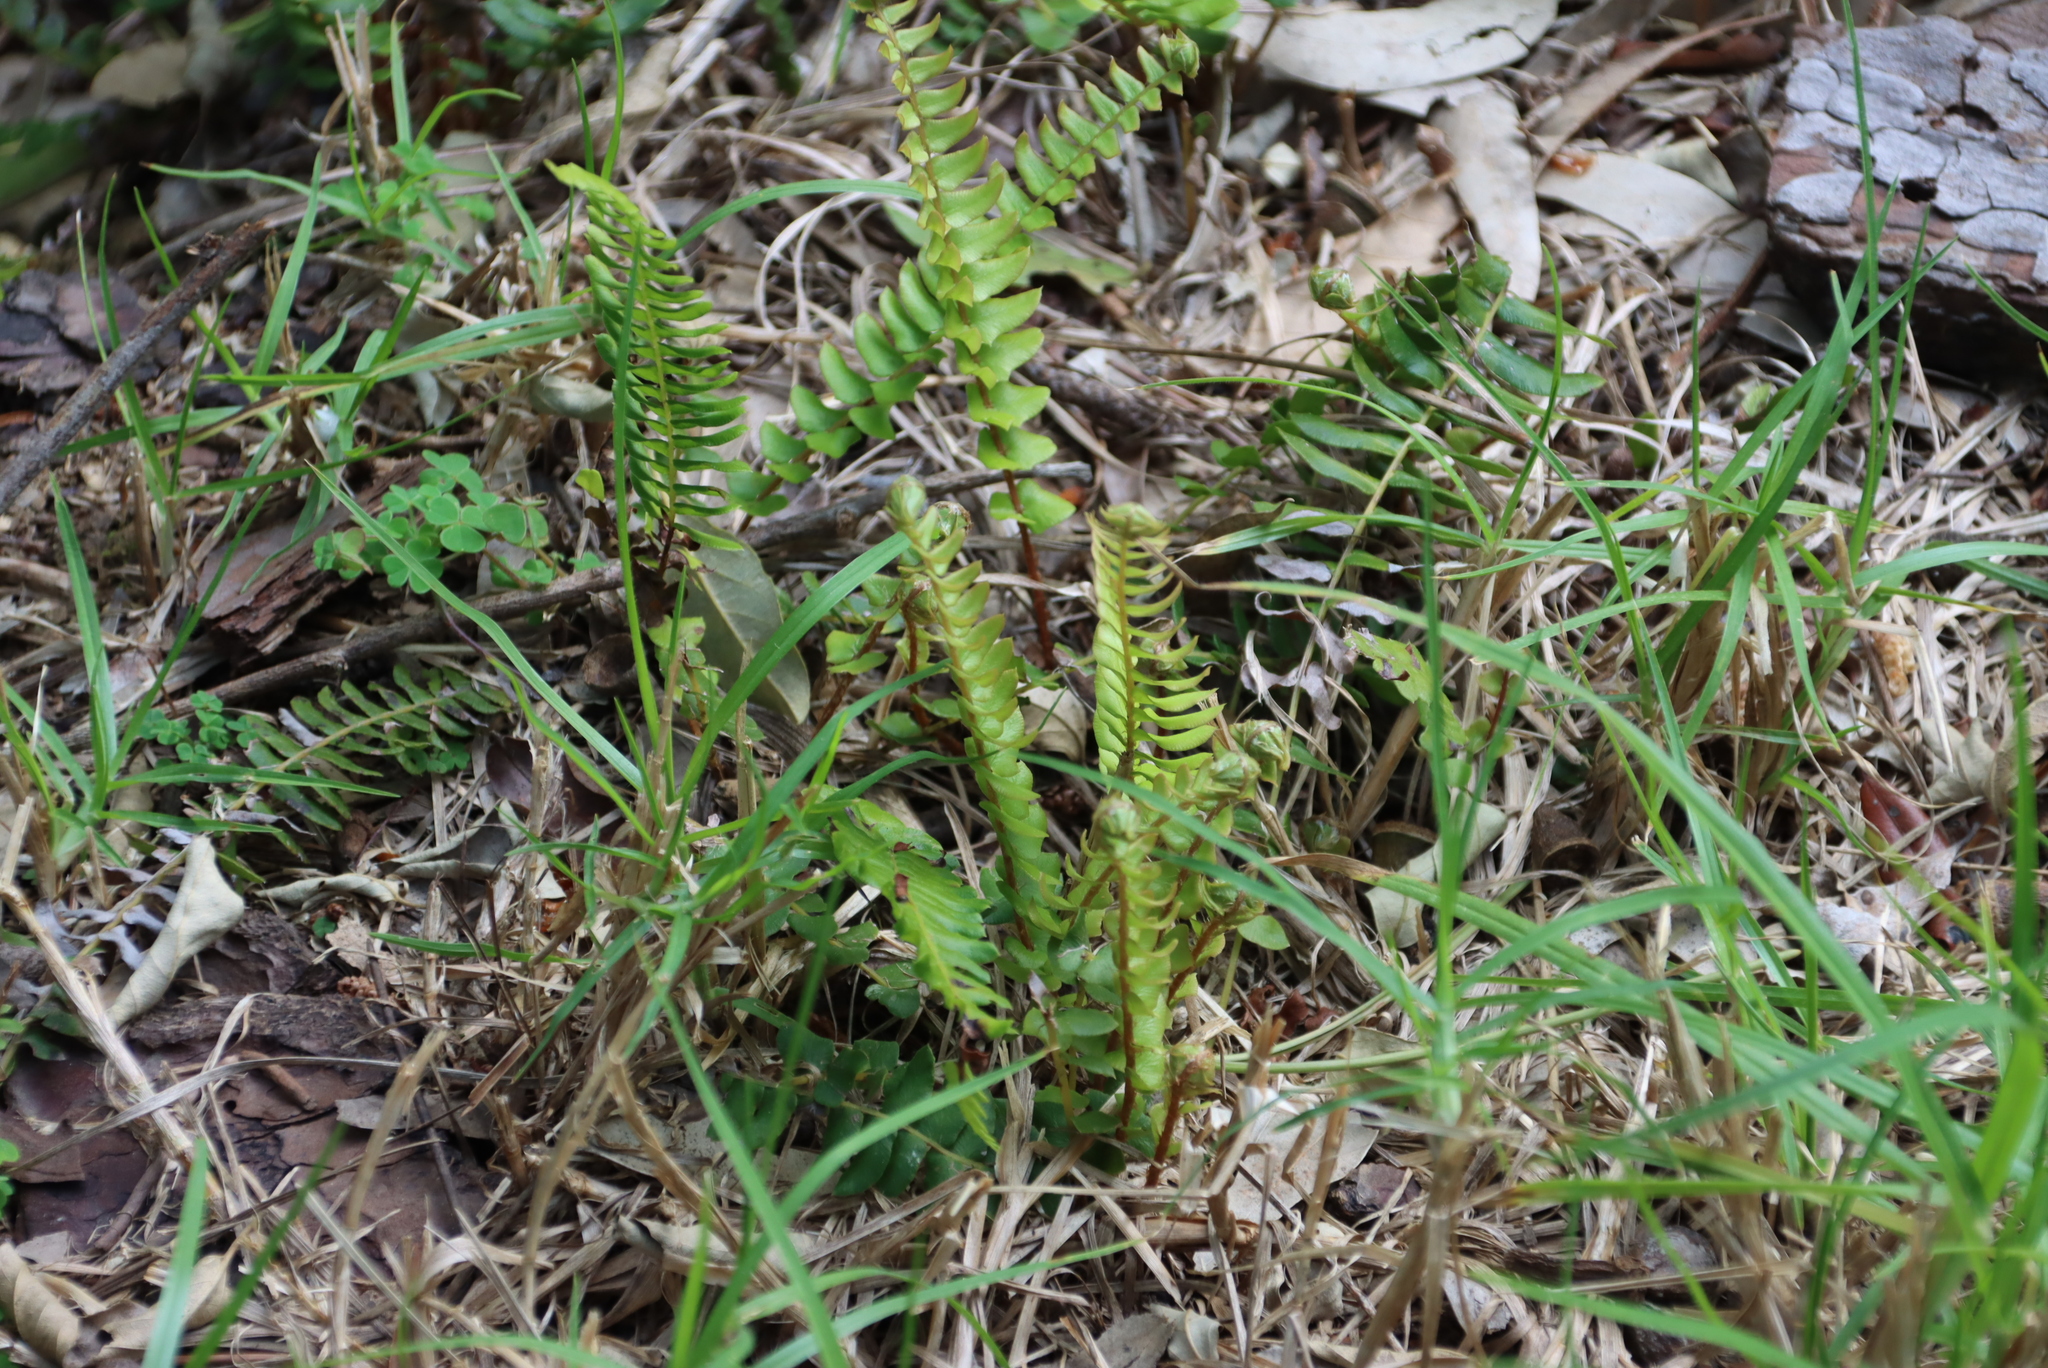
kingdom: Plantae
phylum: Tracheophyta
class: Polypodiopsida
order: Polypodiales
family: Nephrolepidaceae
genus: Nephrolepis
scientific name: Nephrolepis cordifolia
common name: Narrow swordfern
